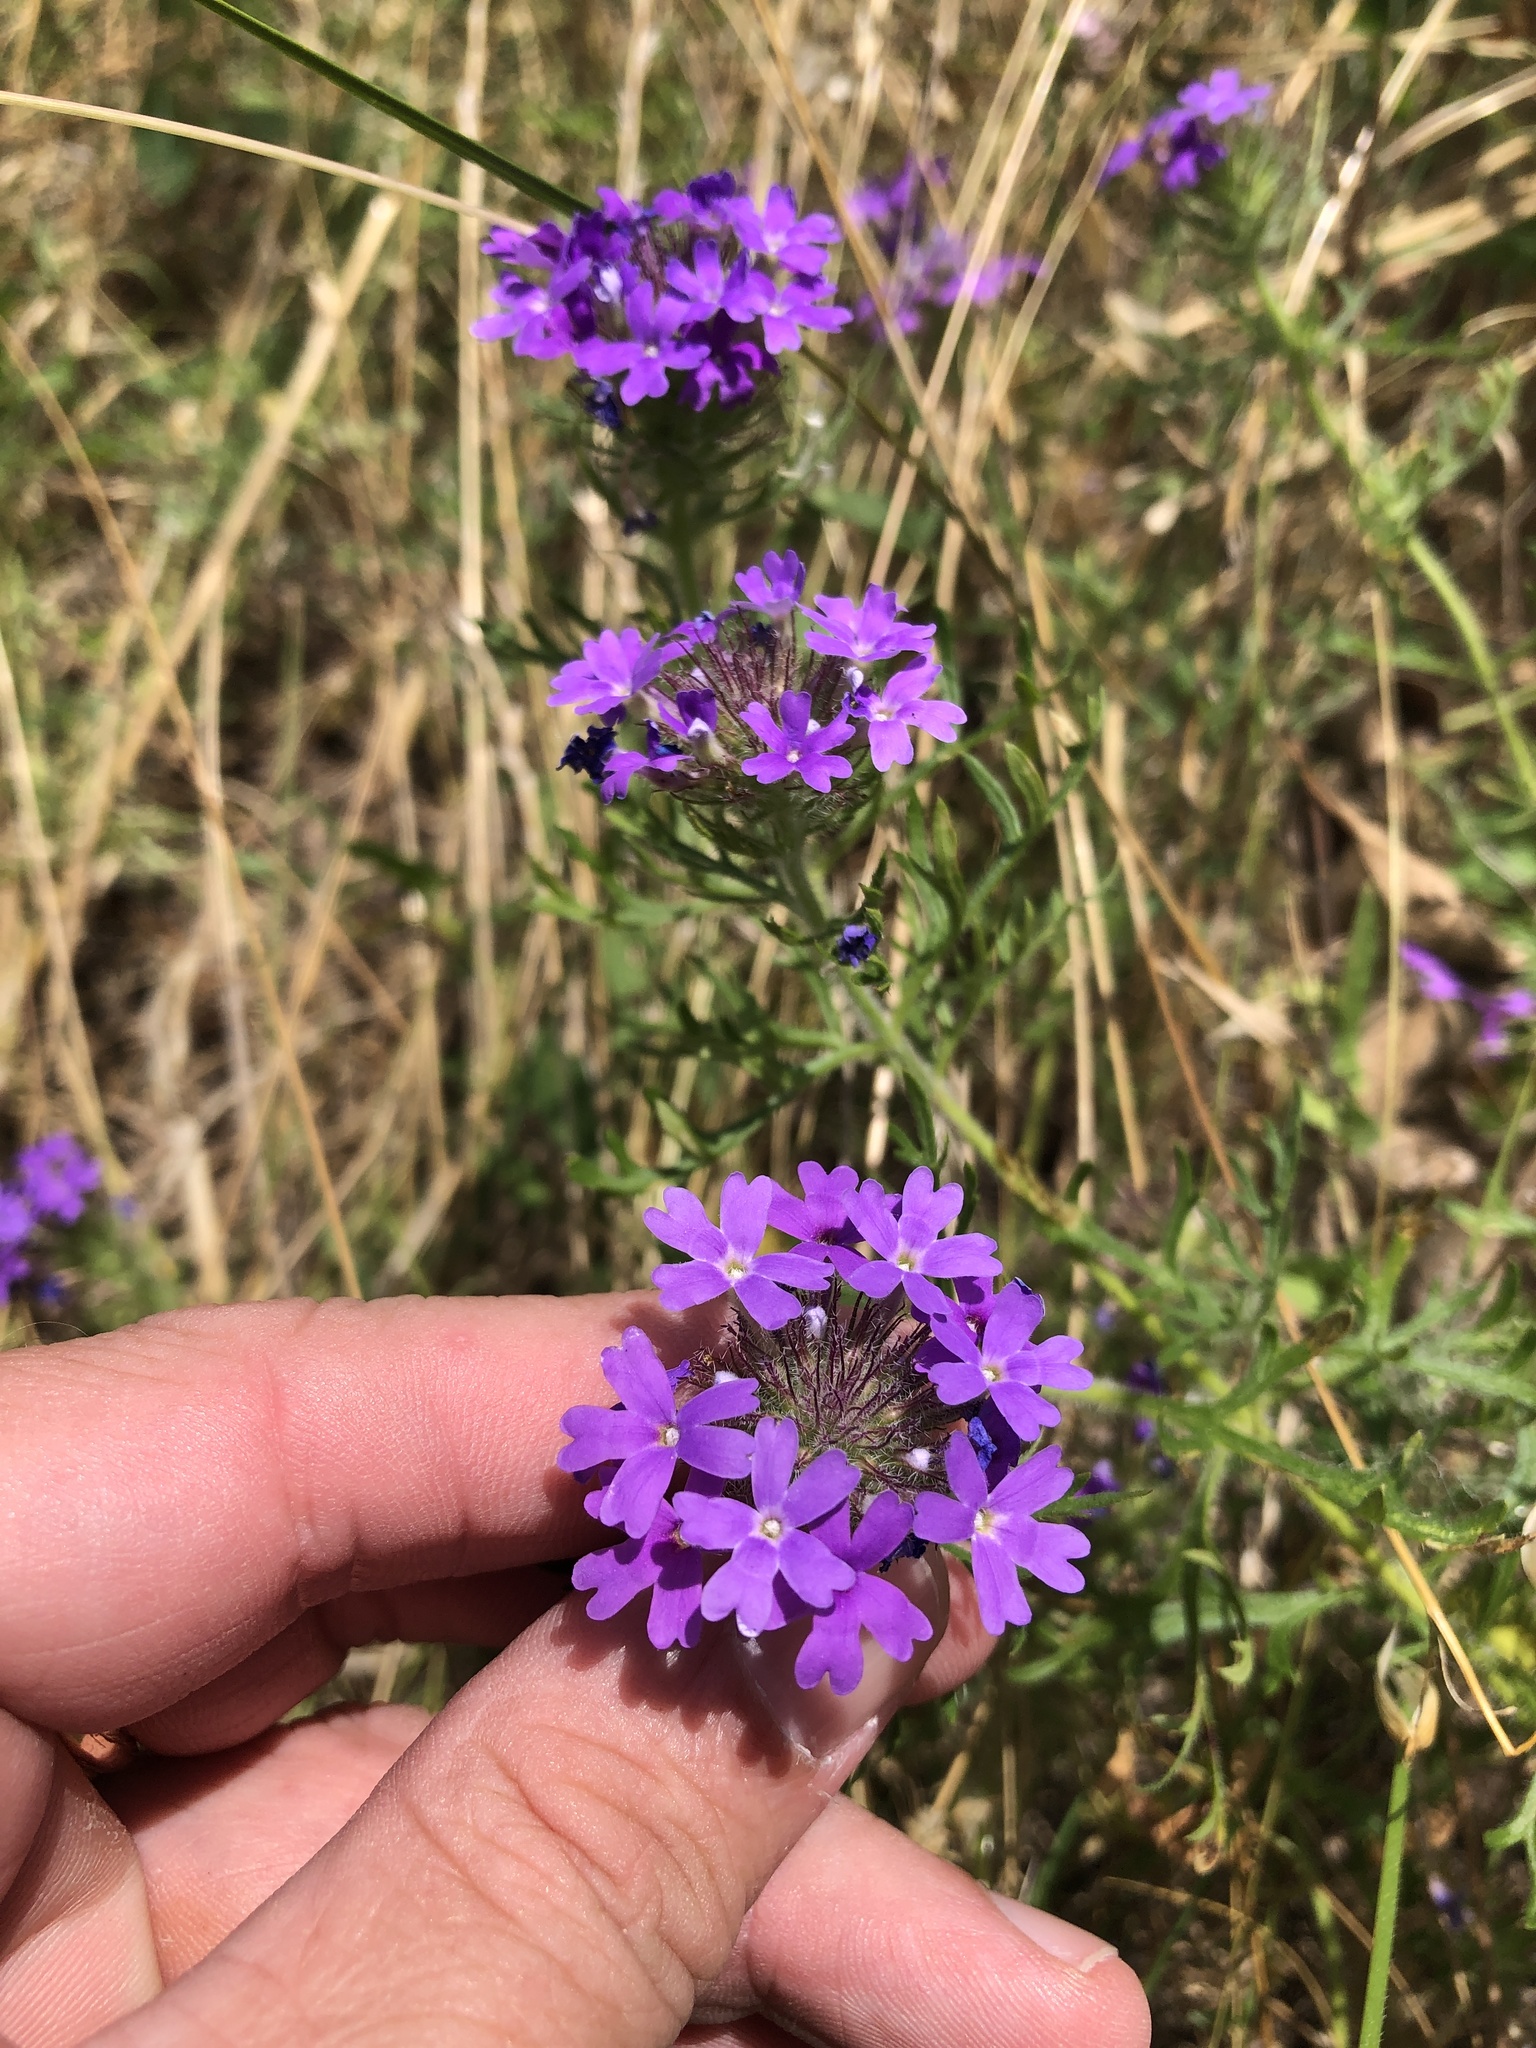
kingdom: Plantae
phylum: Tracheophyta
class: Magnoliopsida
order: Lamiales
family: Verbenaceae
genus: Verbena
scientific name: Verbena bipinnatifida
